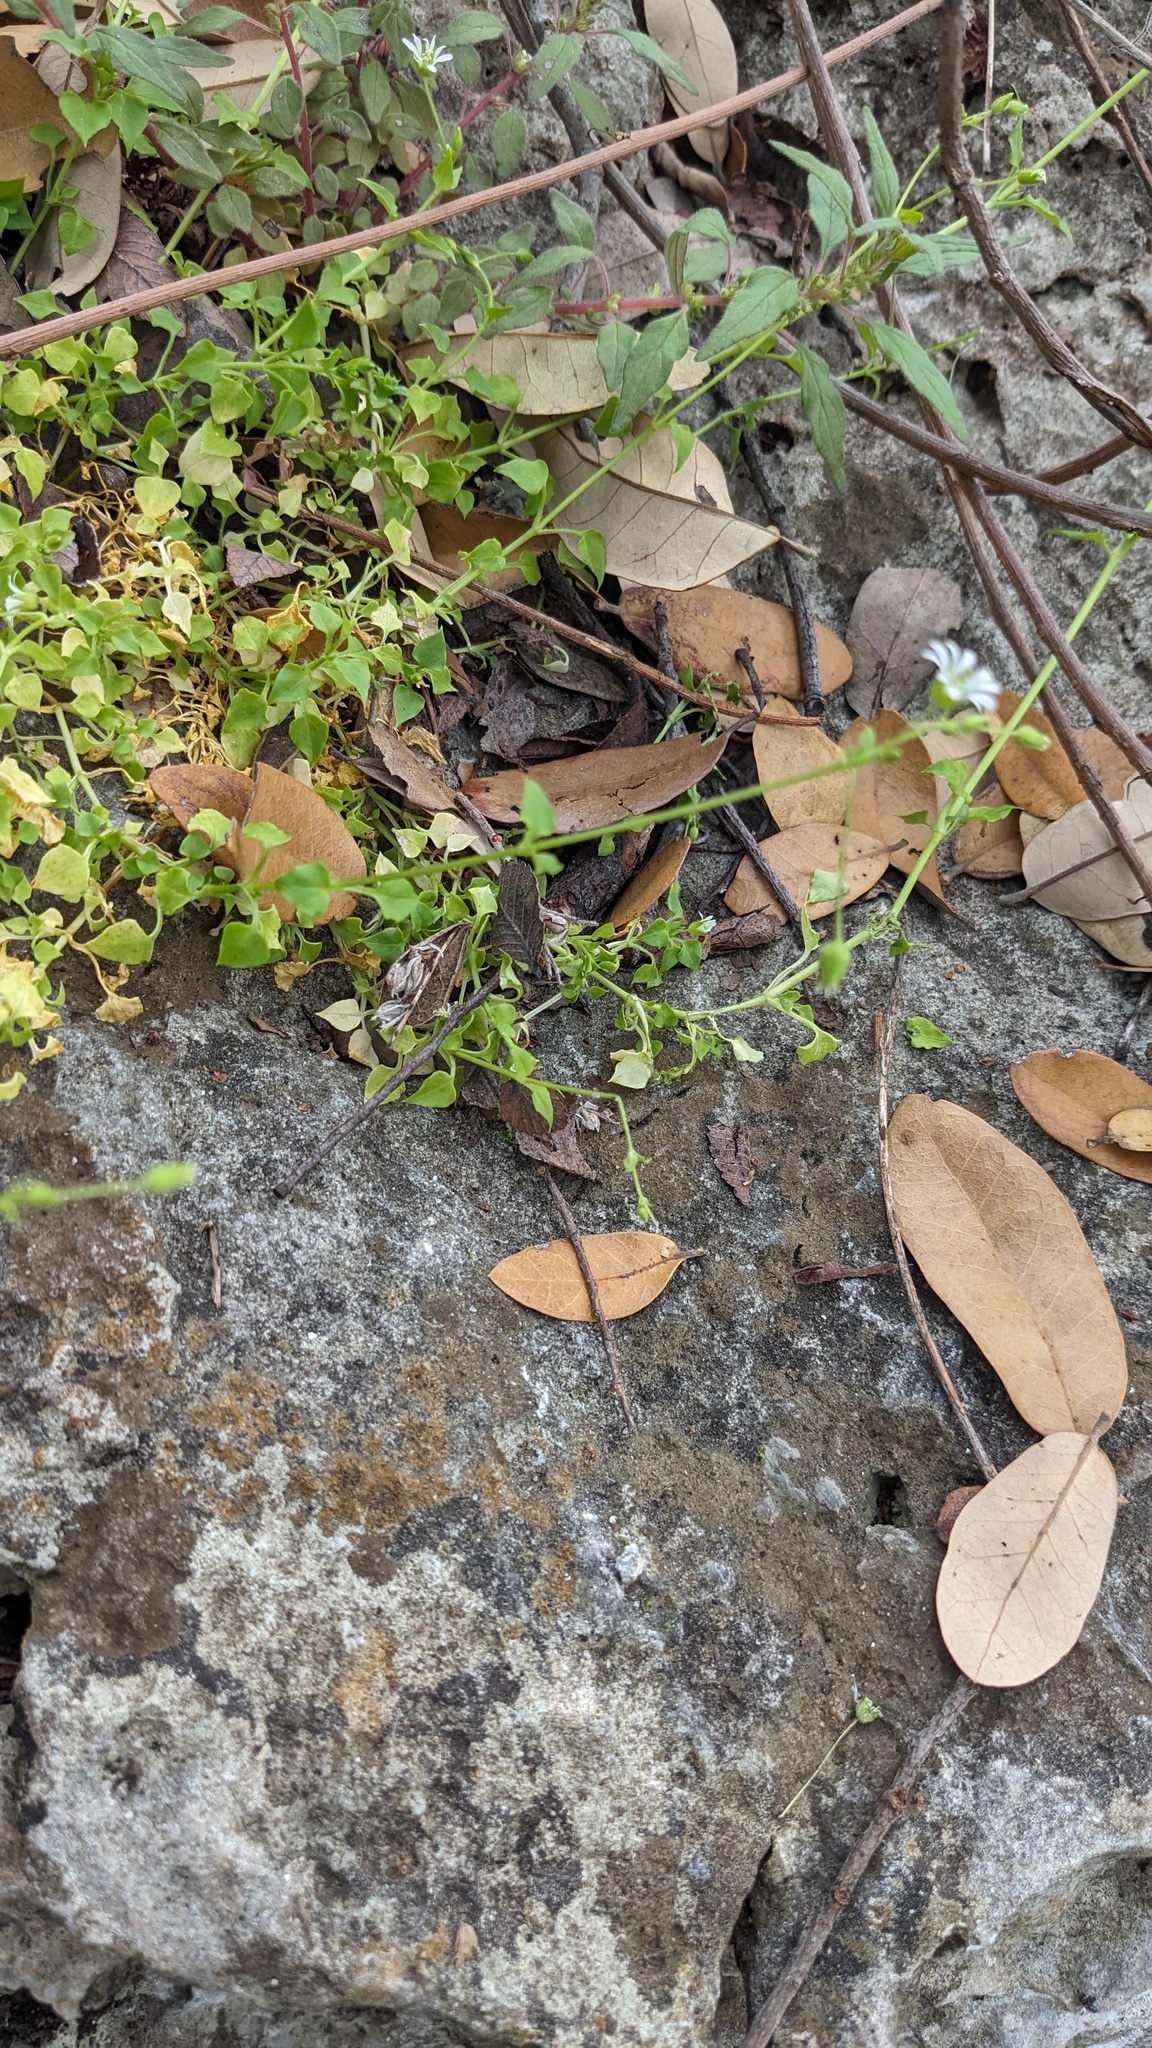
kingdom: Plantae
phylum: Tracheophyta
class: Magnoliopsida
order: Caryophyllales
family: Caryophyllaceae
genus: Stellaria
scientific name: Stellaria cuspidata
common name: Mexican chickweed
